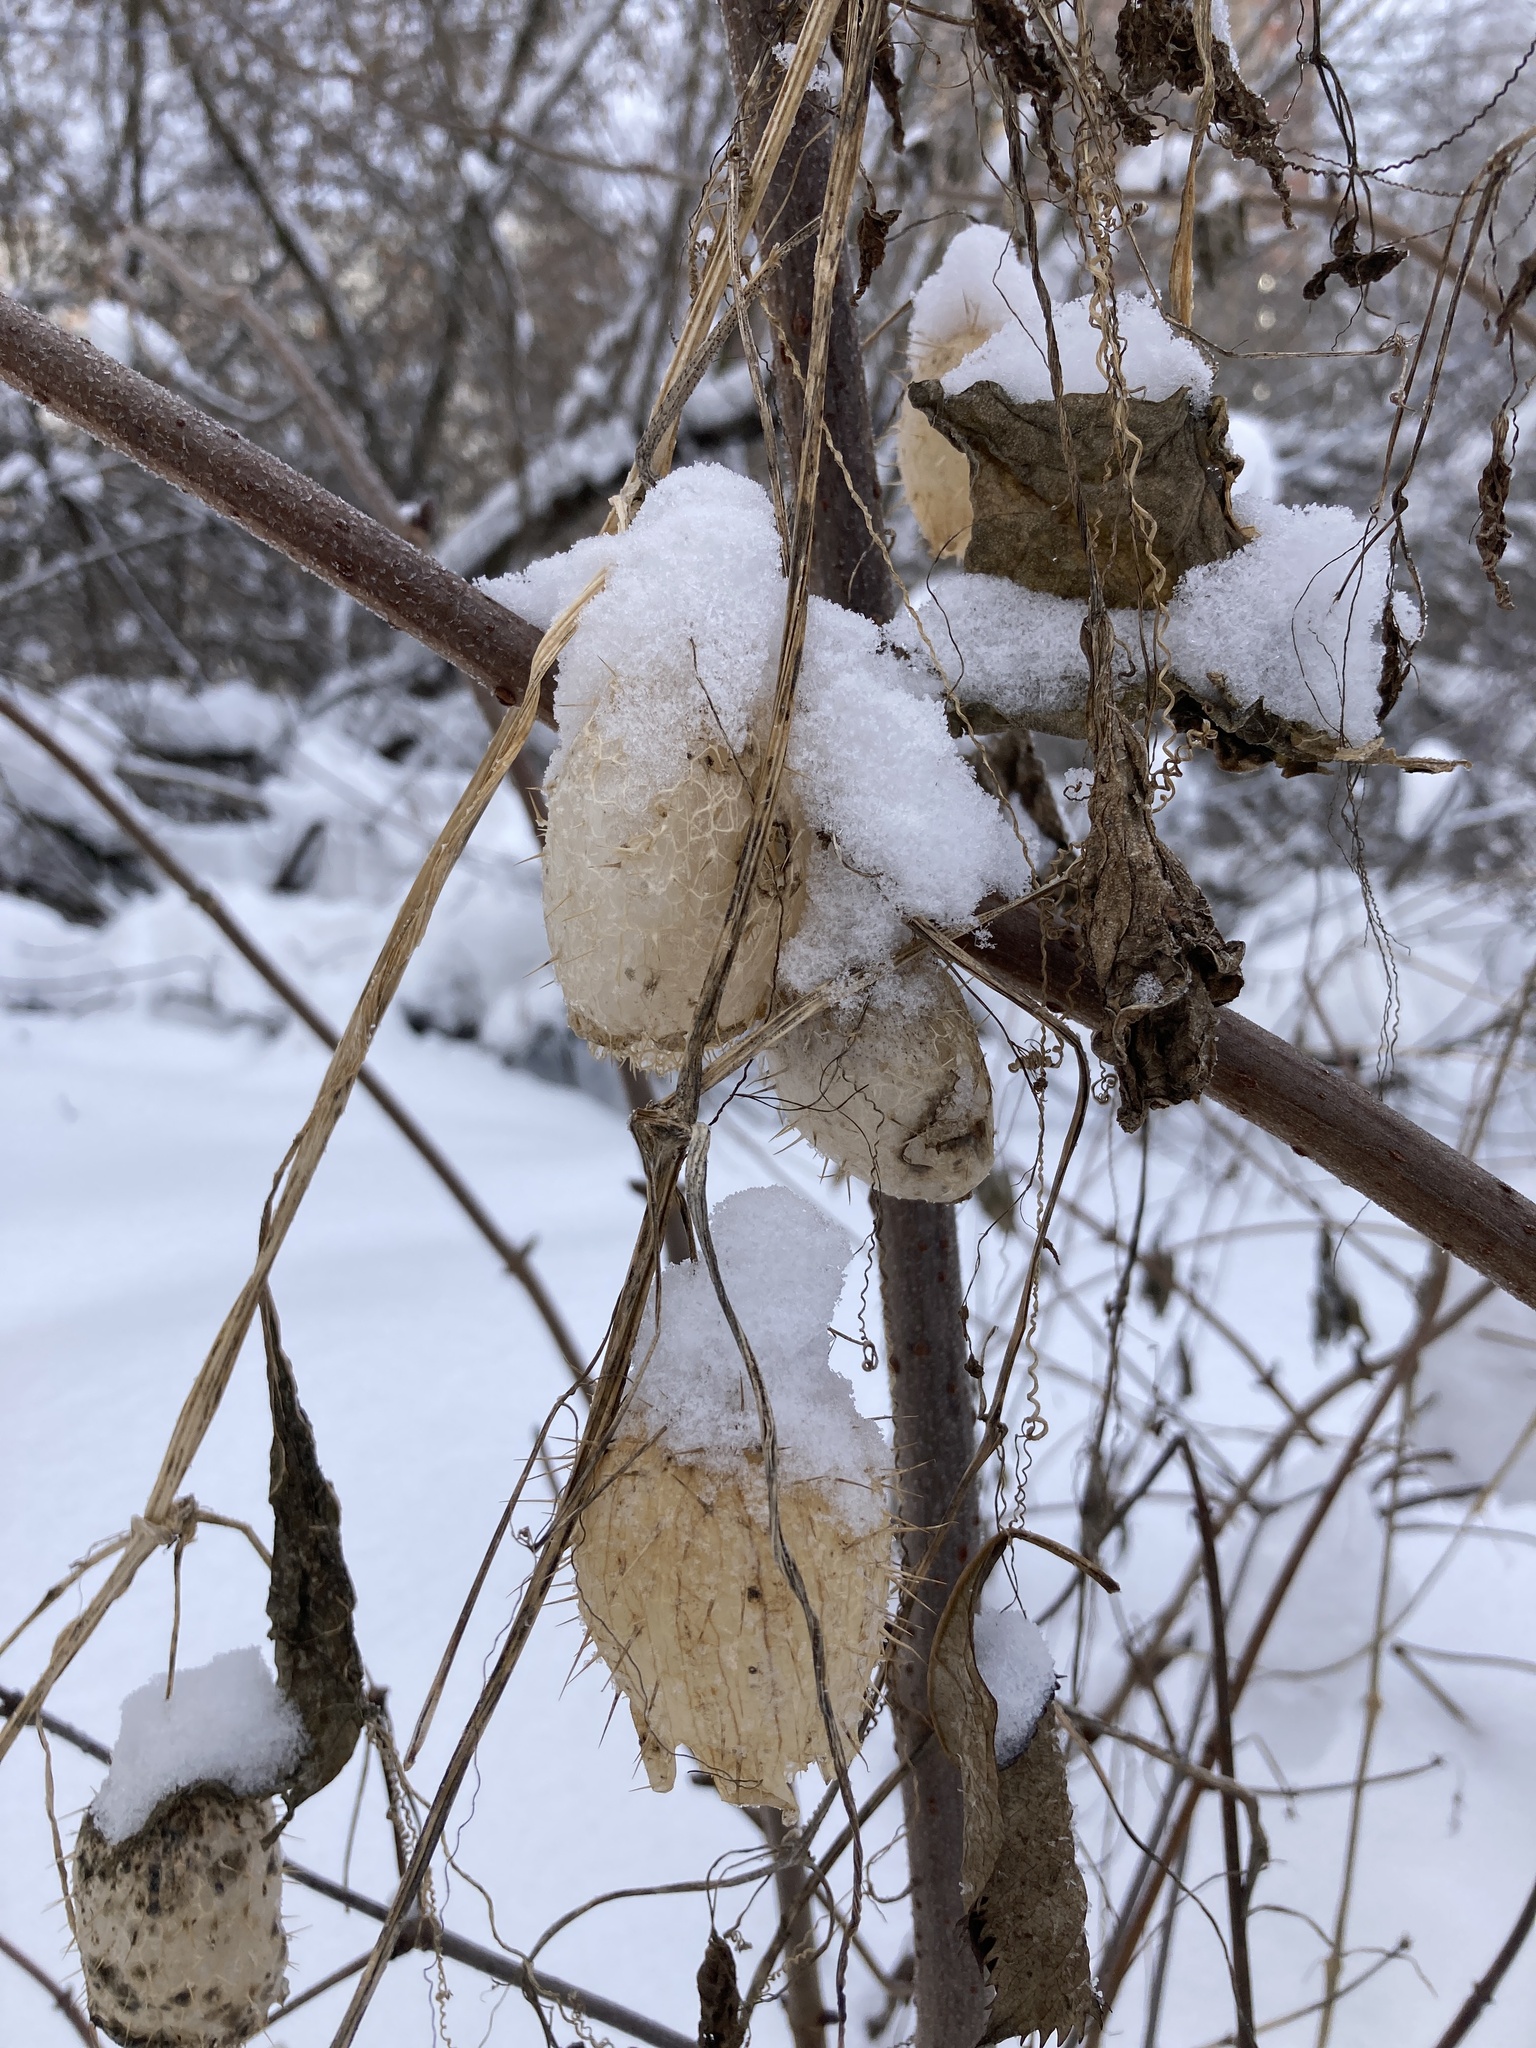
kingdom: Plantae
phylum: Tracheophyta
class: Magnoliopsida
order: Cucurbitales
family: Cucurbitaceae
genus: Echinocystis
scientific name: Echinocystis lobata
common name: Wild cucumber
